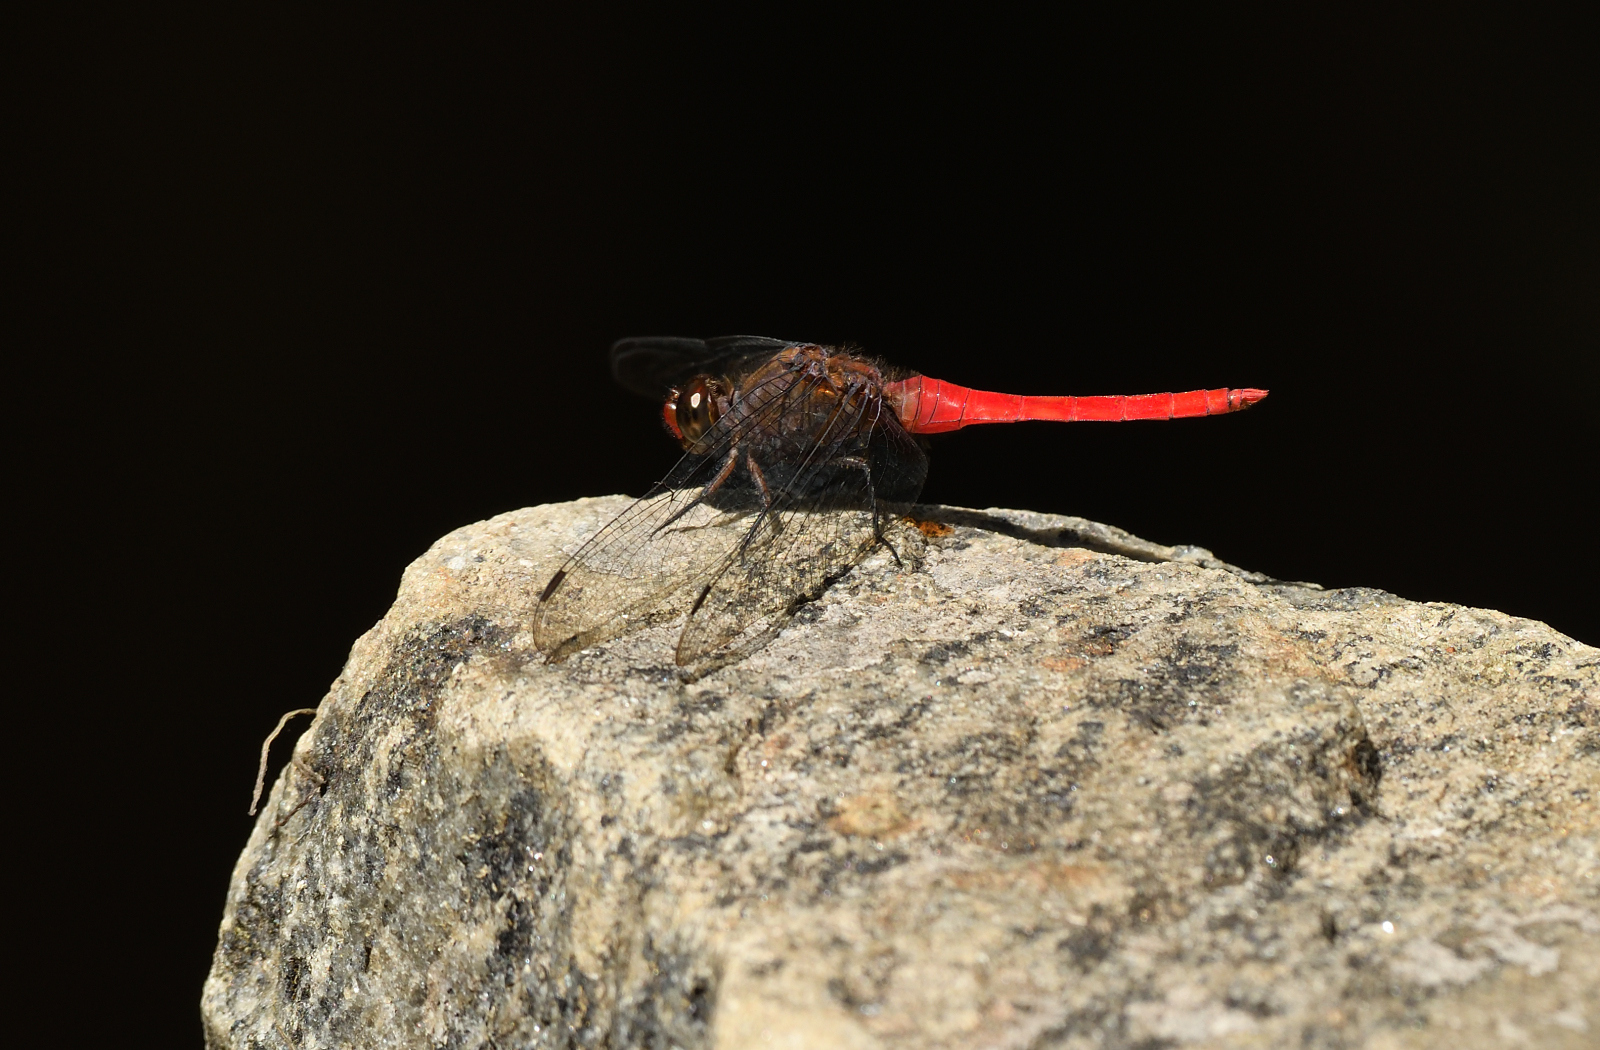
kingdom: Animalia
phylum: Arthropoda
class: Insecta
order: Odonata
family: Libellulidae
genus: Orthetrum
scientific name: Orthetrum chrysis
